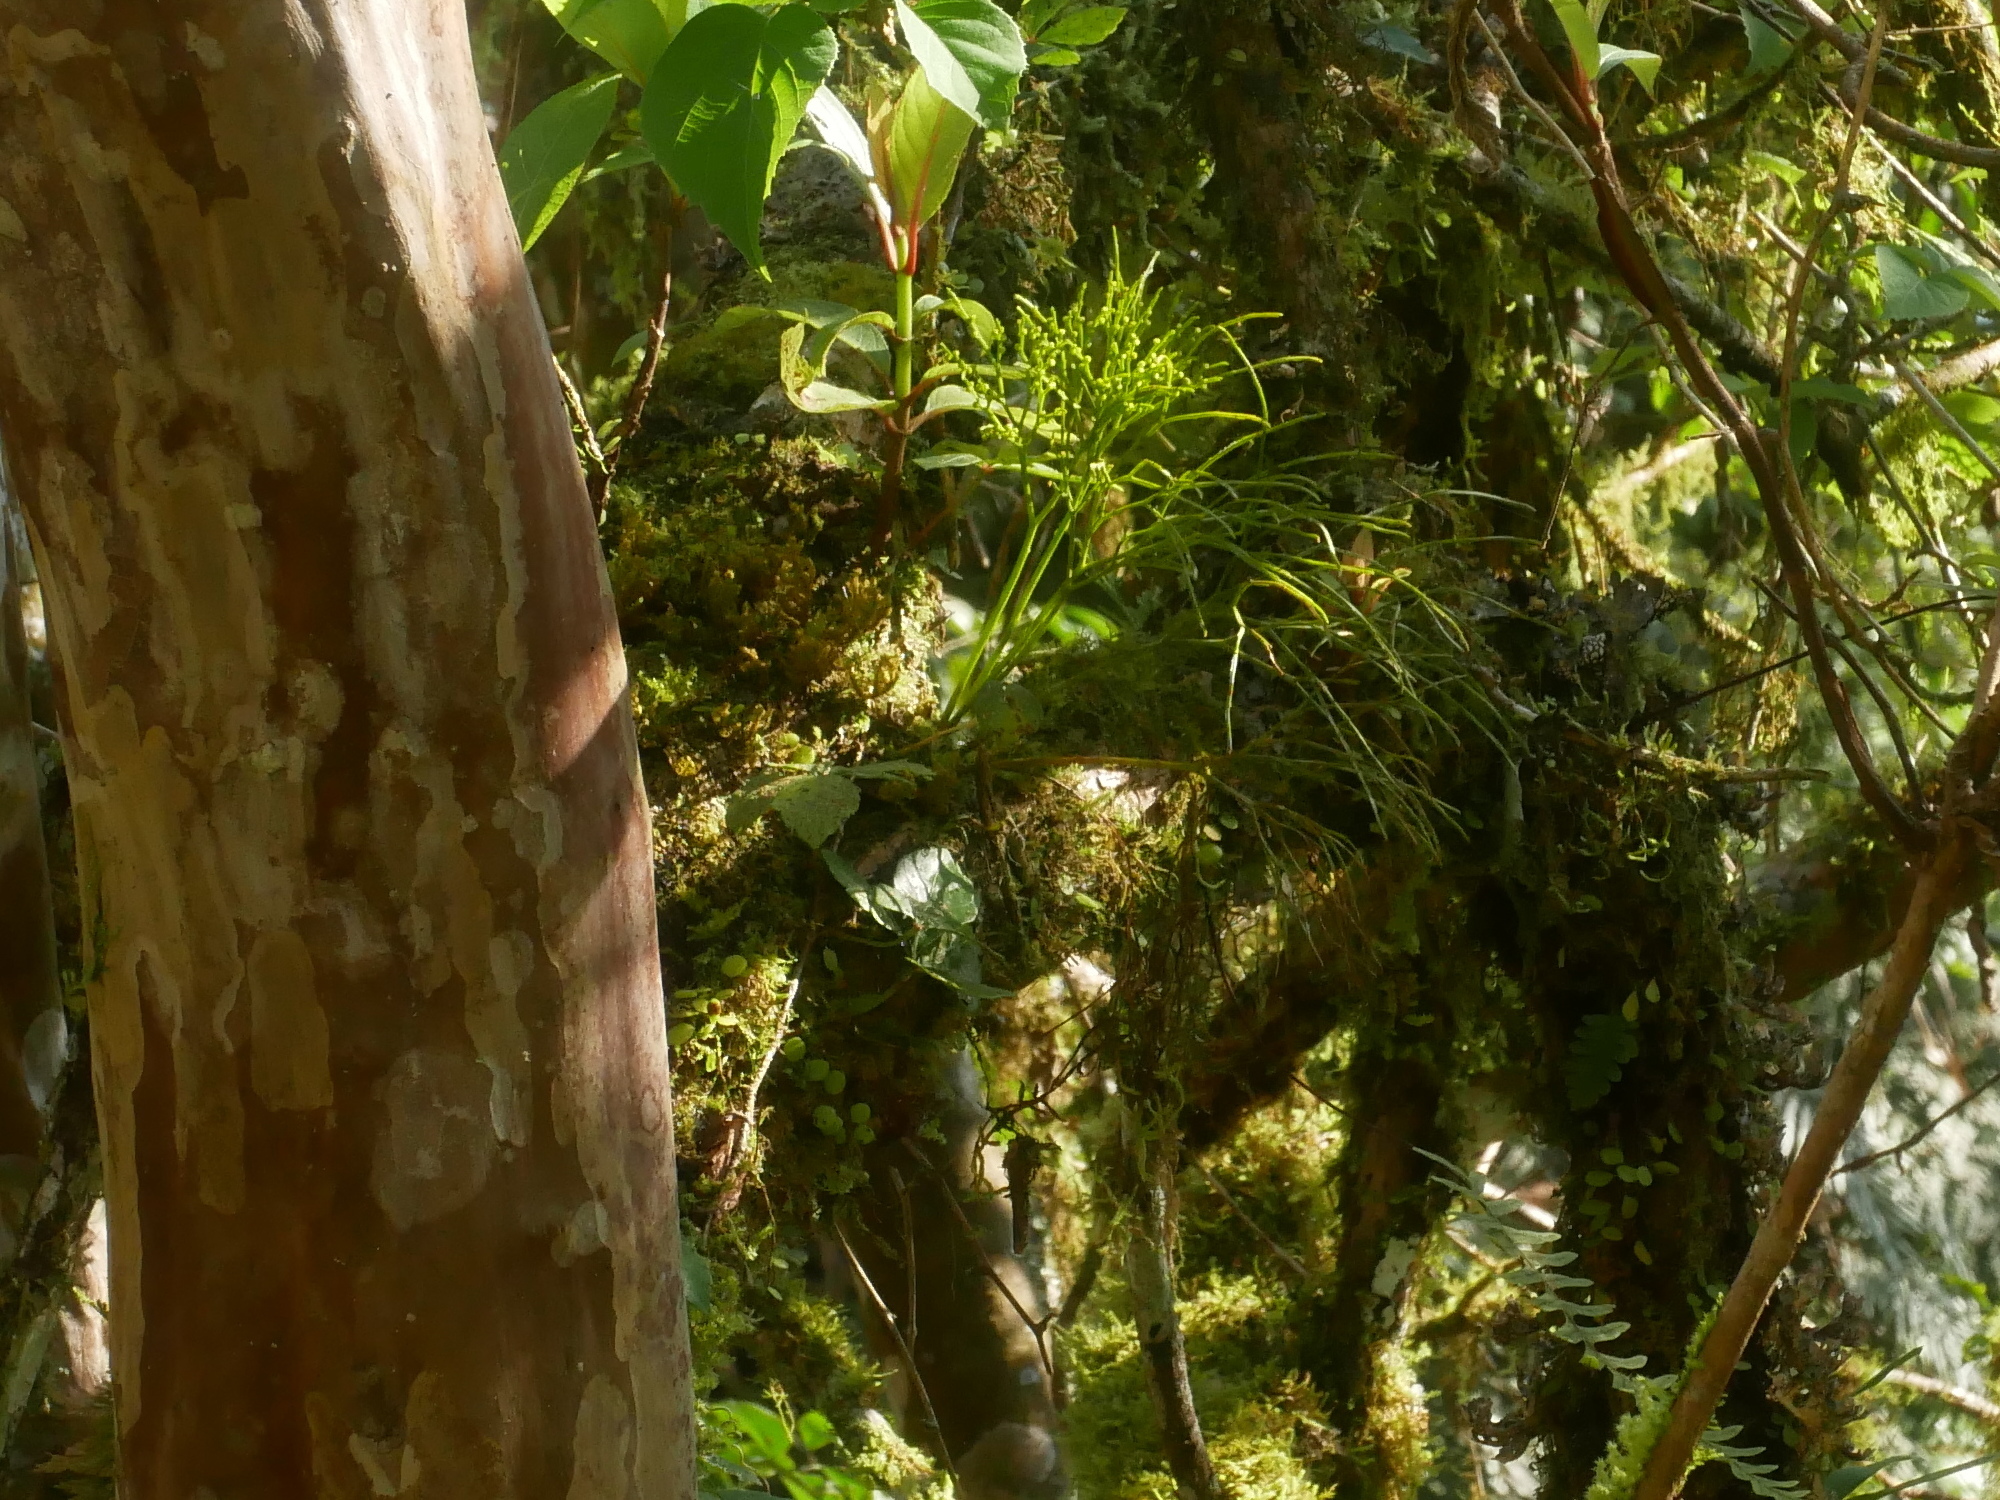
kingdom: Plantae
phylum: Tracheophyta
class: Polypodiopsida
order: Psilotales
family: Psilotaceae
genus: Psilotum
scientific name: Psilotum nudum
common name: Skeleton fork fern
